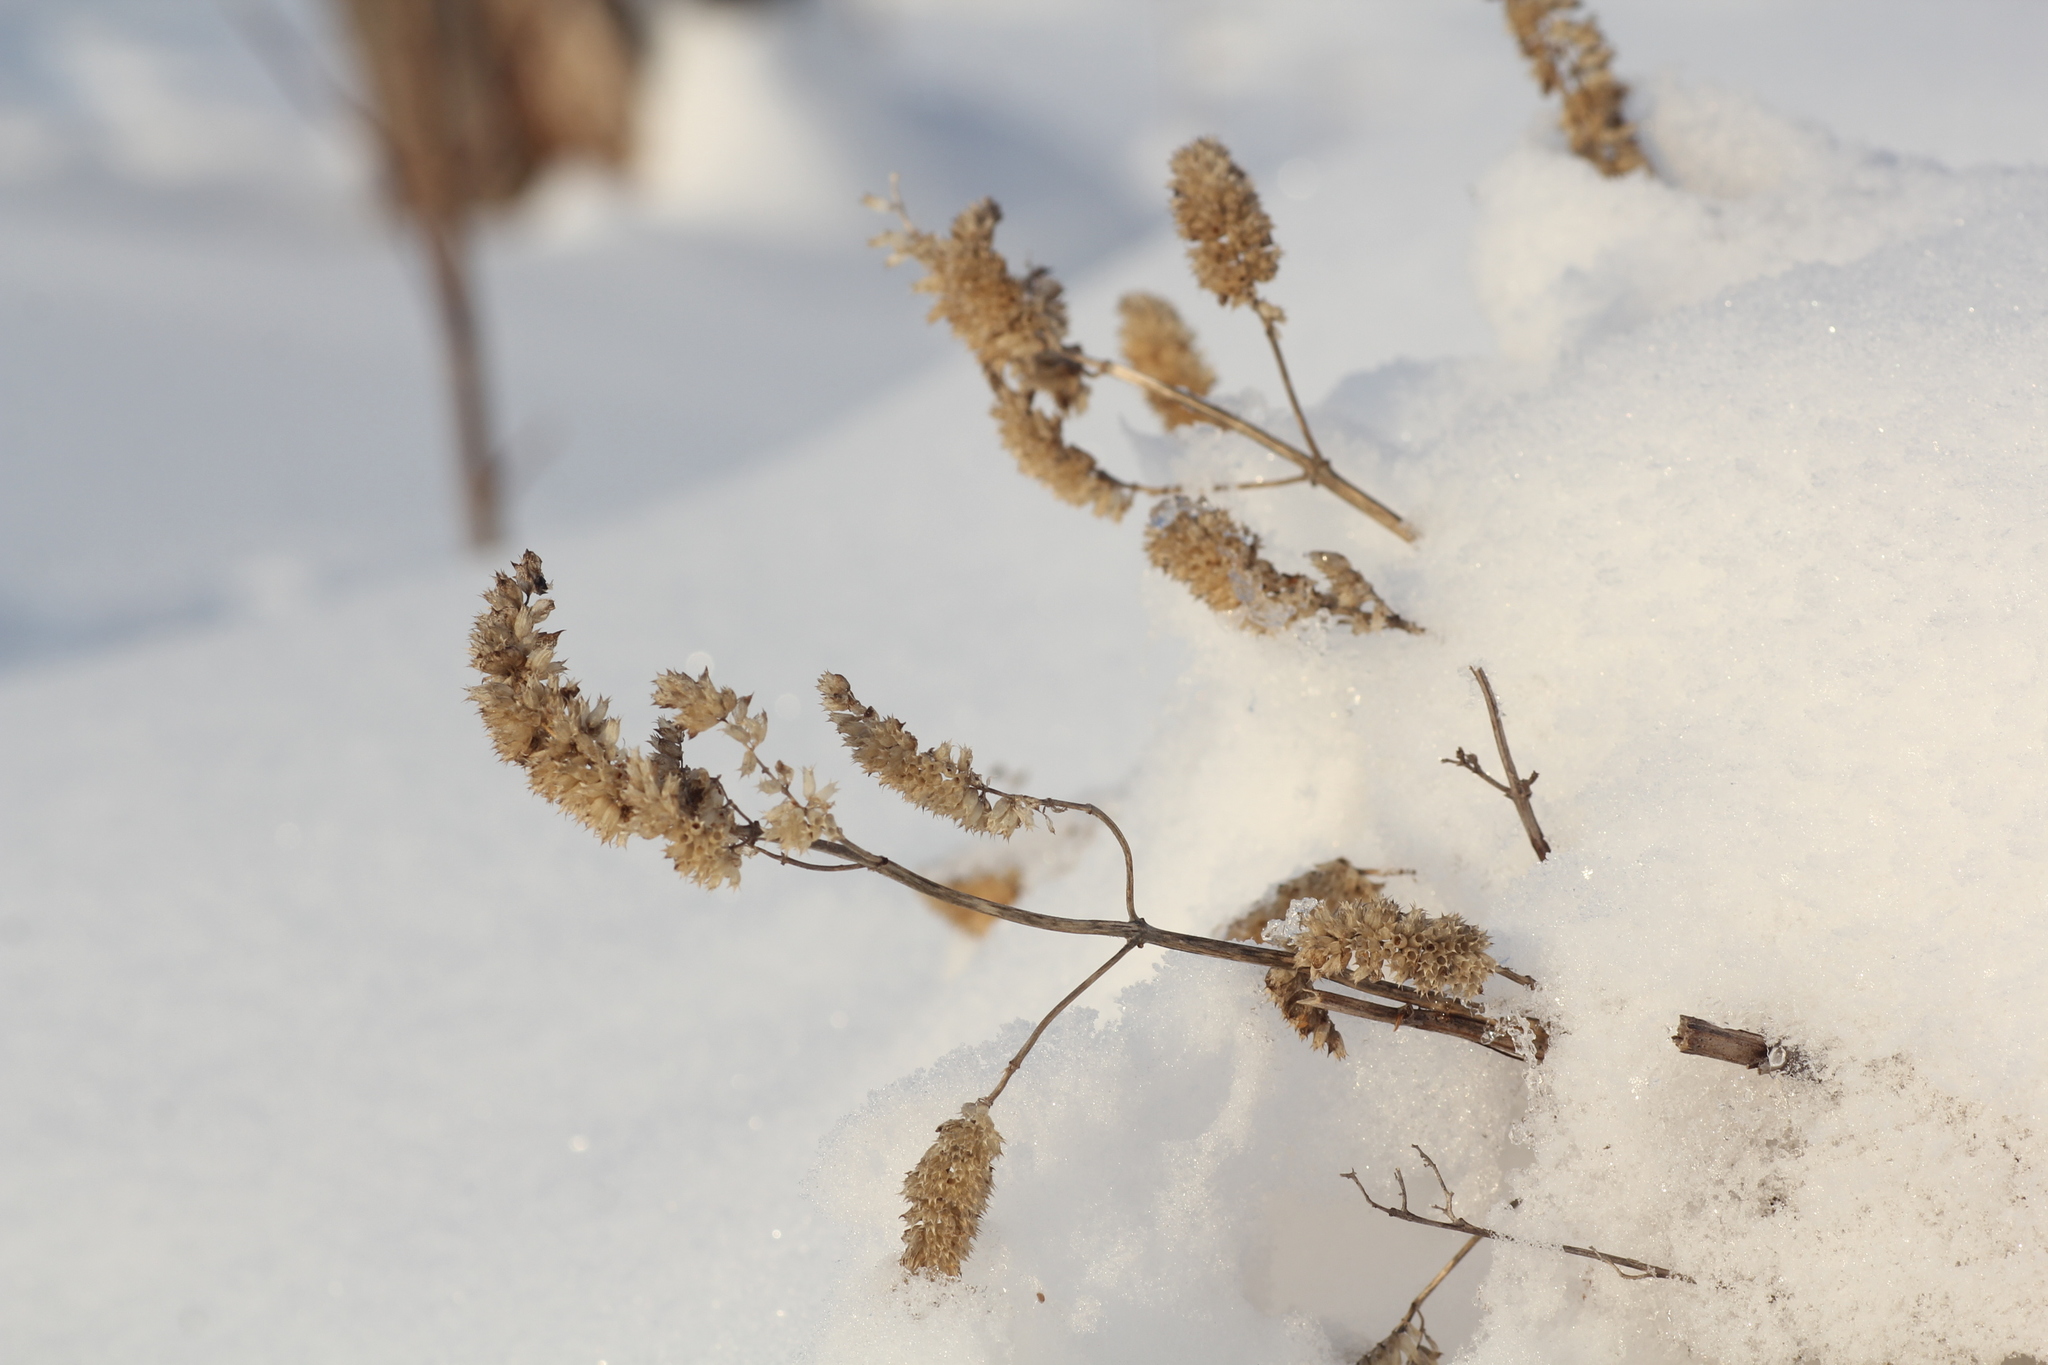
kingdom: Plantae
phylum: Tracheophyta
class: Magnoliopsida
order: Lamiales
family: Lamiaceae
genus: Elsholtzia
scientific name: Elsholtzia ciliata
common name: Ciliate elsholtzia
